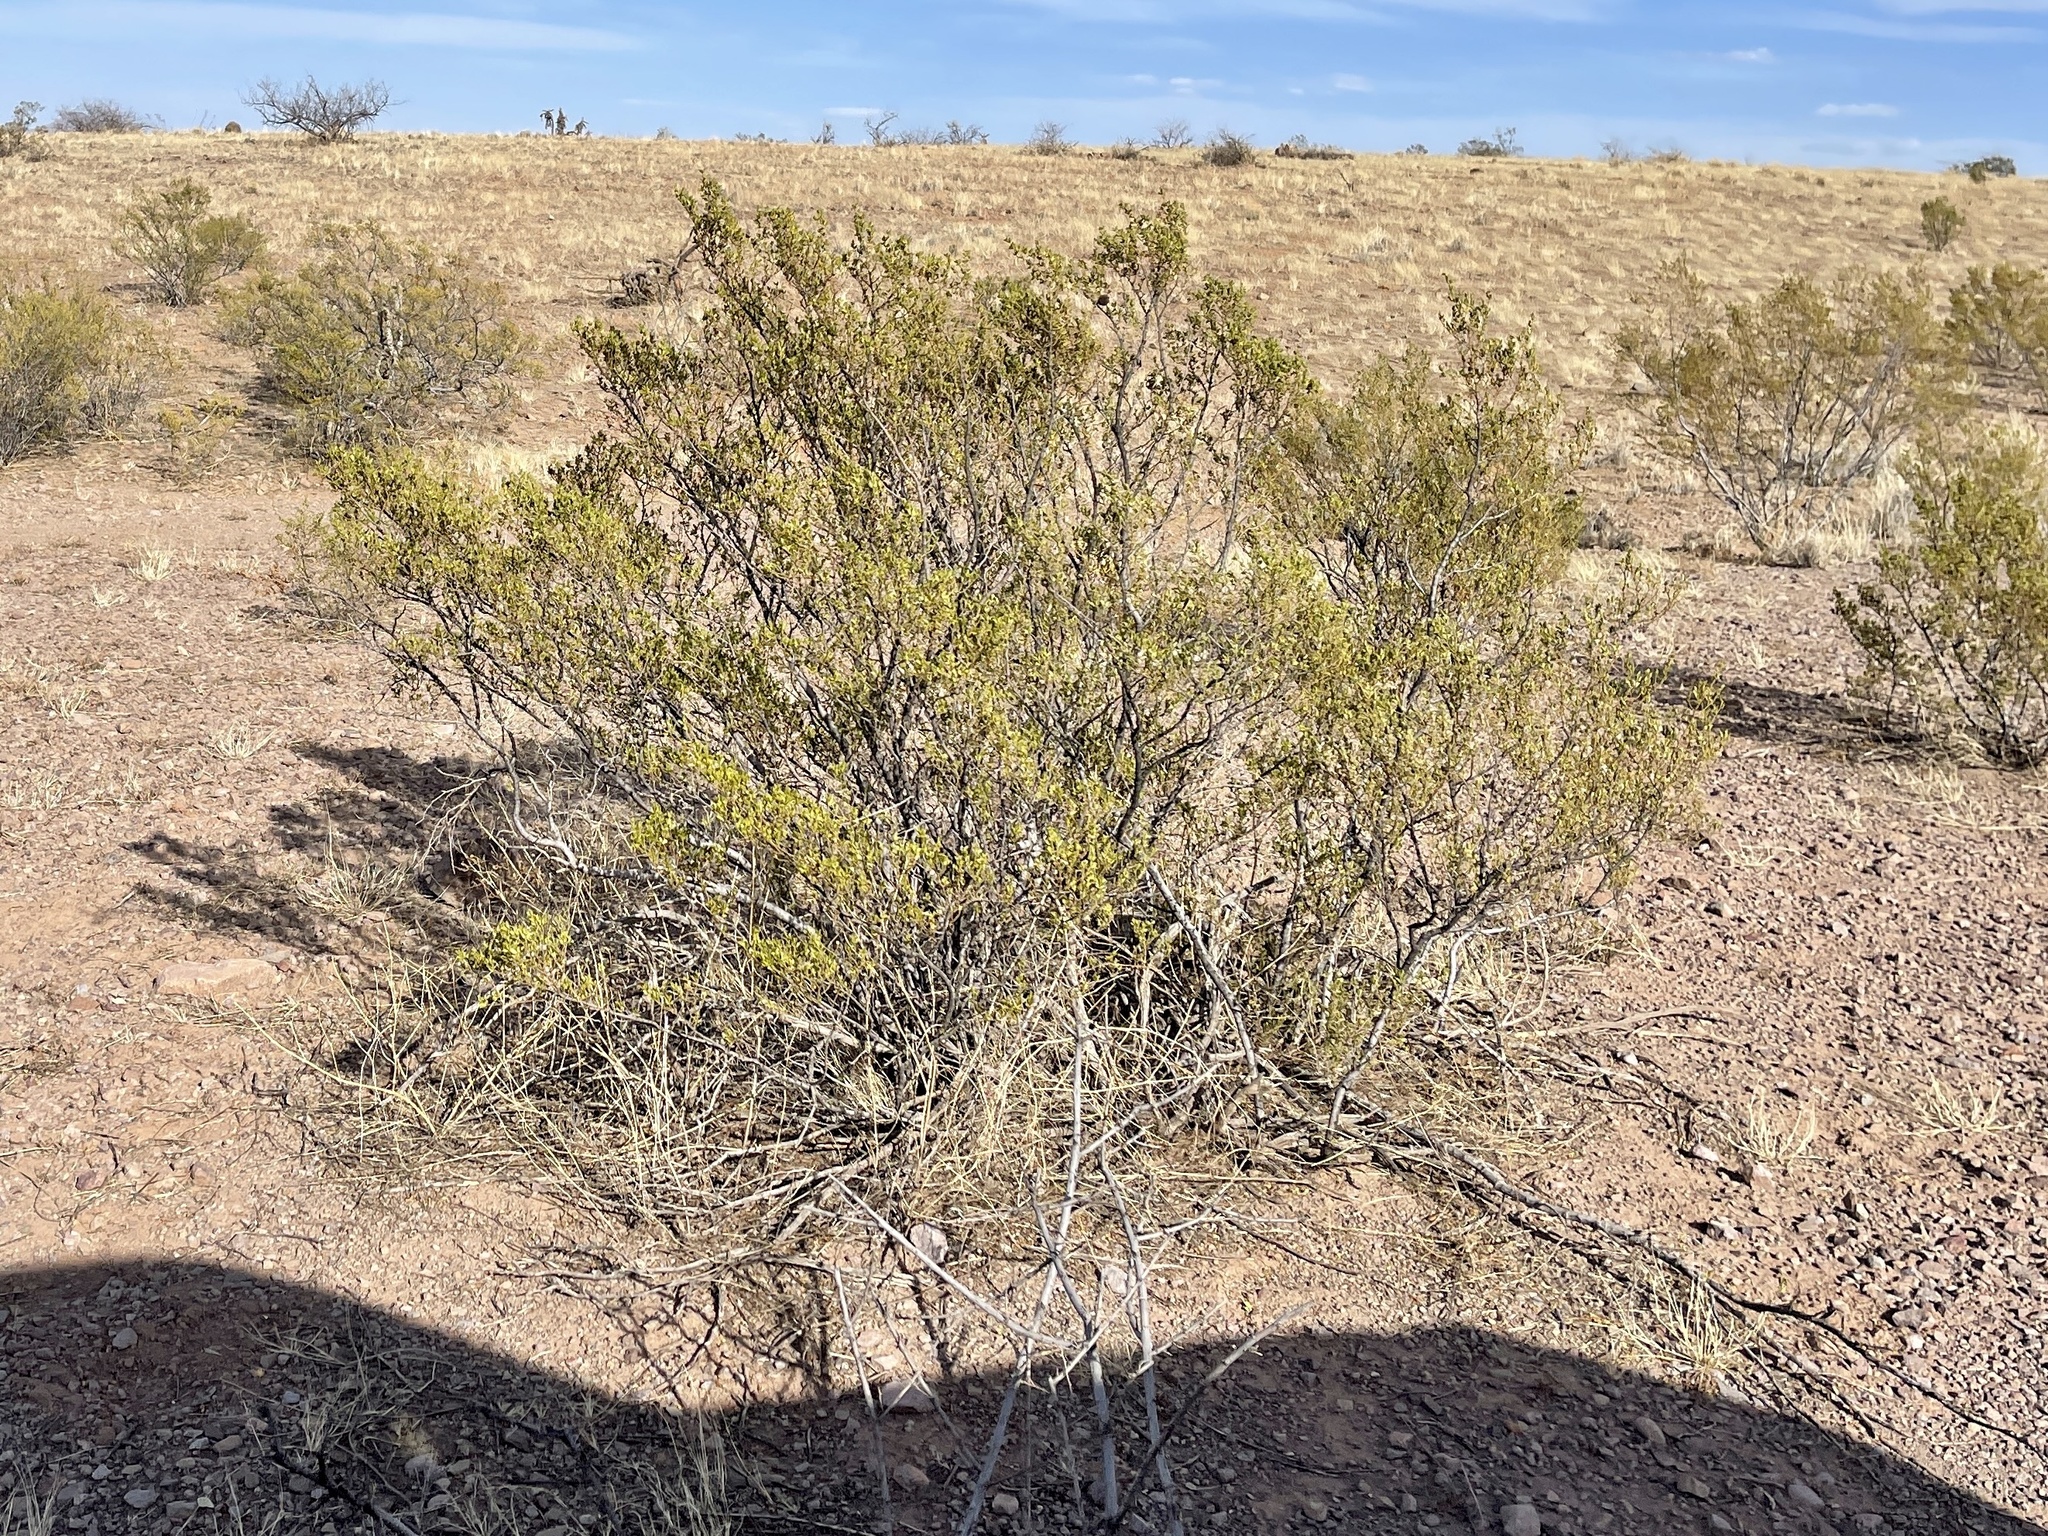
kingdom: Plantae
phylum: Tracheophyta
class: Magnoliopsida
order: Zygophyllales
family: Zygophyllaceae
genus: Larrea
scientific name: Larrea tridentata
